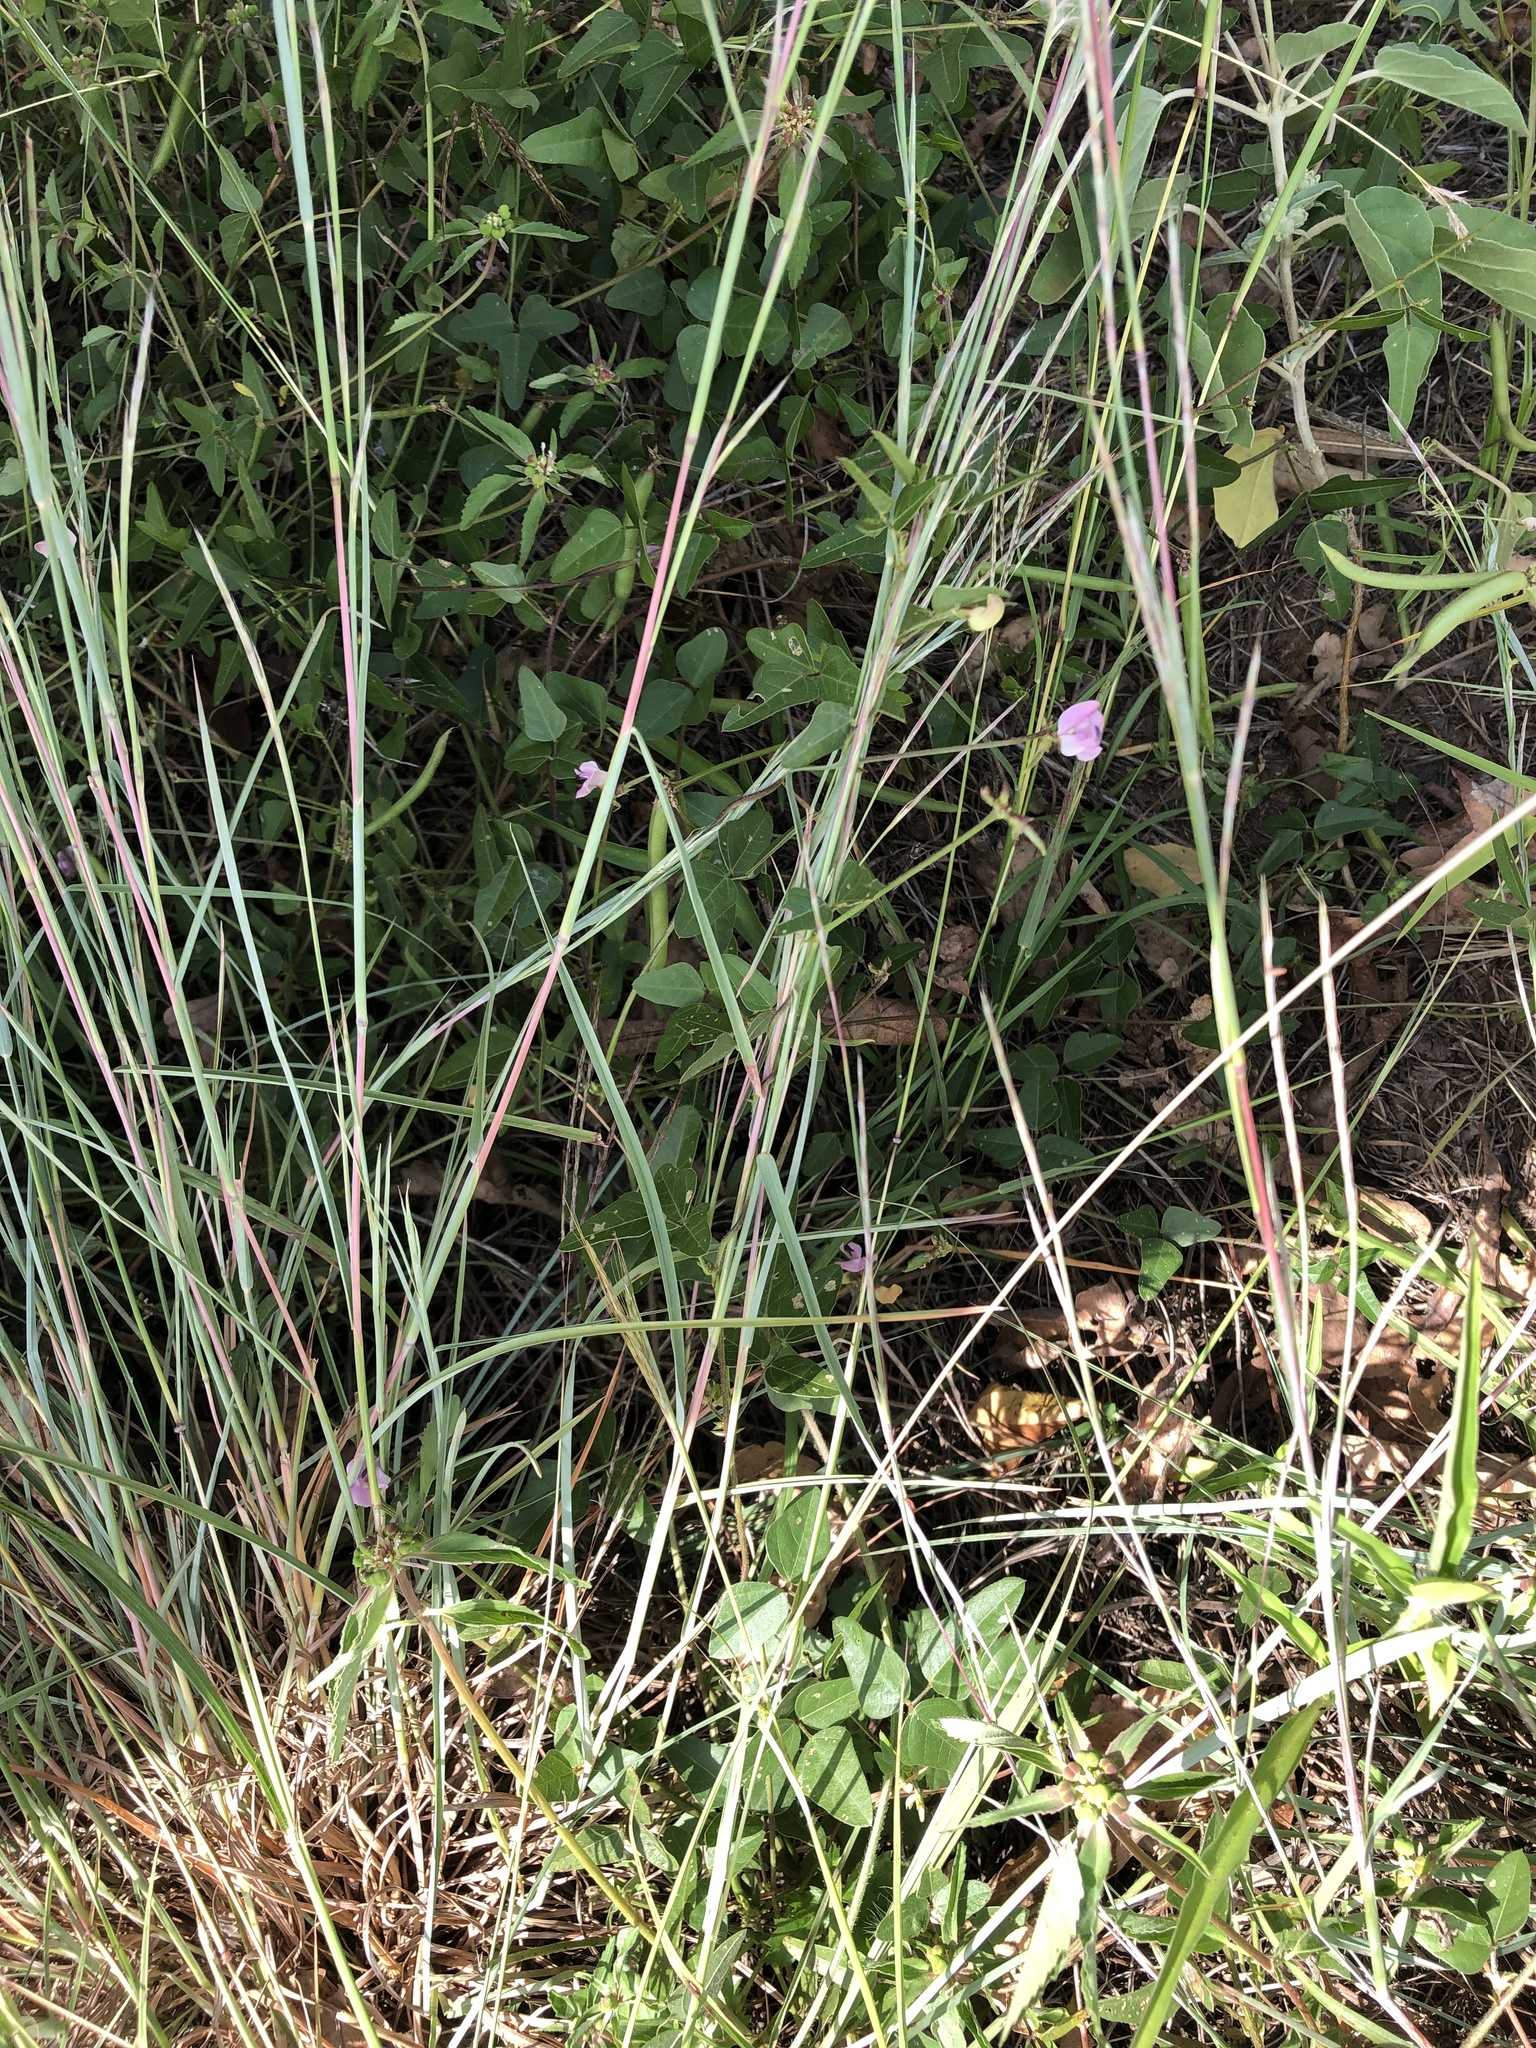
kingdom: Plantae
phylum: Tracheophyta
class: Magnoliopsida
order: Fabales
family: Fabaceae
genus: Strophostyles
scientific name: Strophostyles helvola
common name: Trailing wild bean
